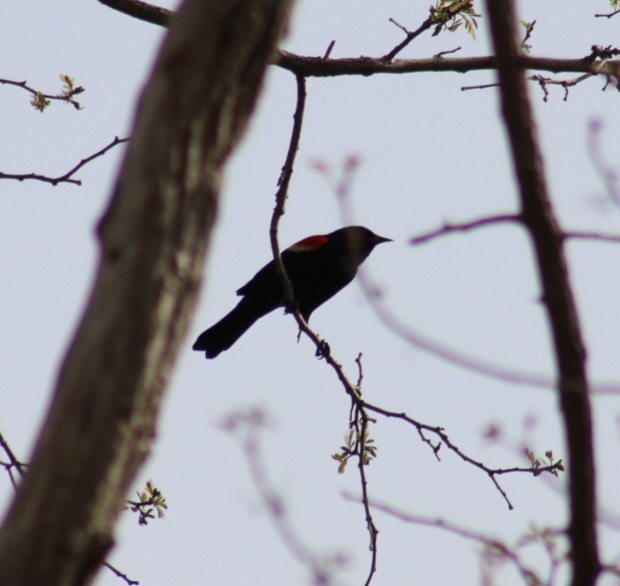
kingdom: Animalia
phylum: Chordata
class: Aves
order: Passeriformes
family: Icteridae
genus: Agelaius
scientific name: Agelaius phoeniceus
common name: Red-winged blackbird
